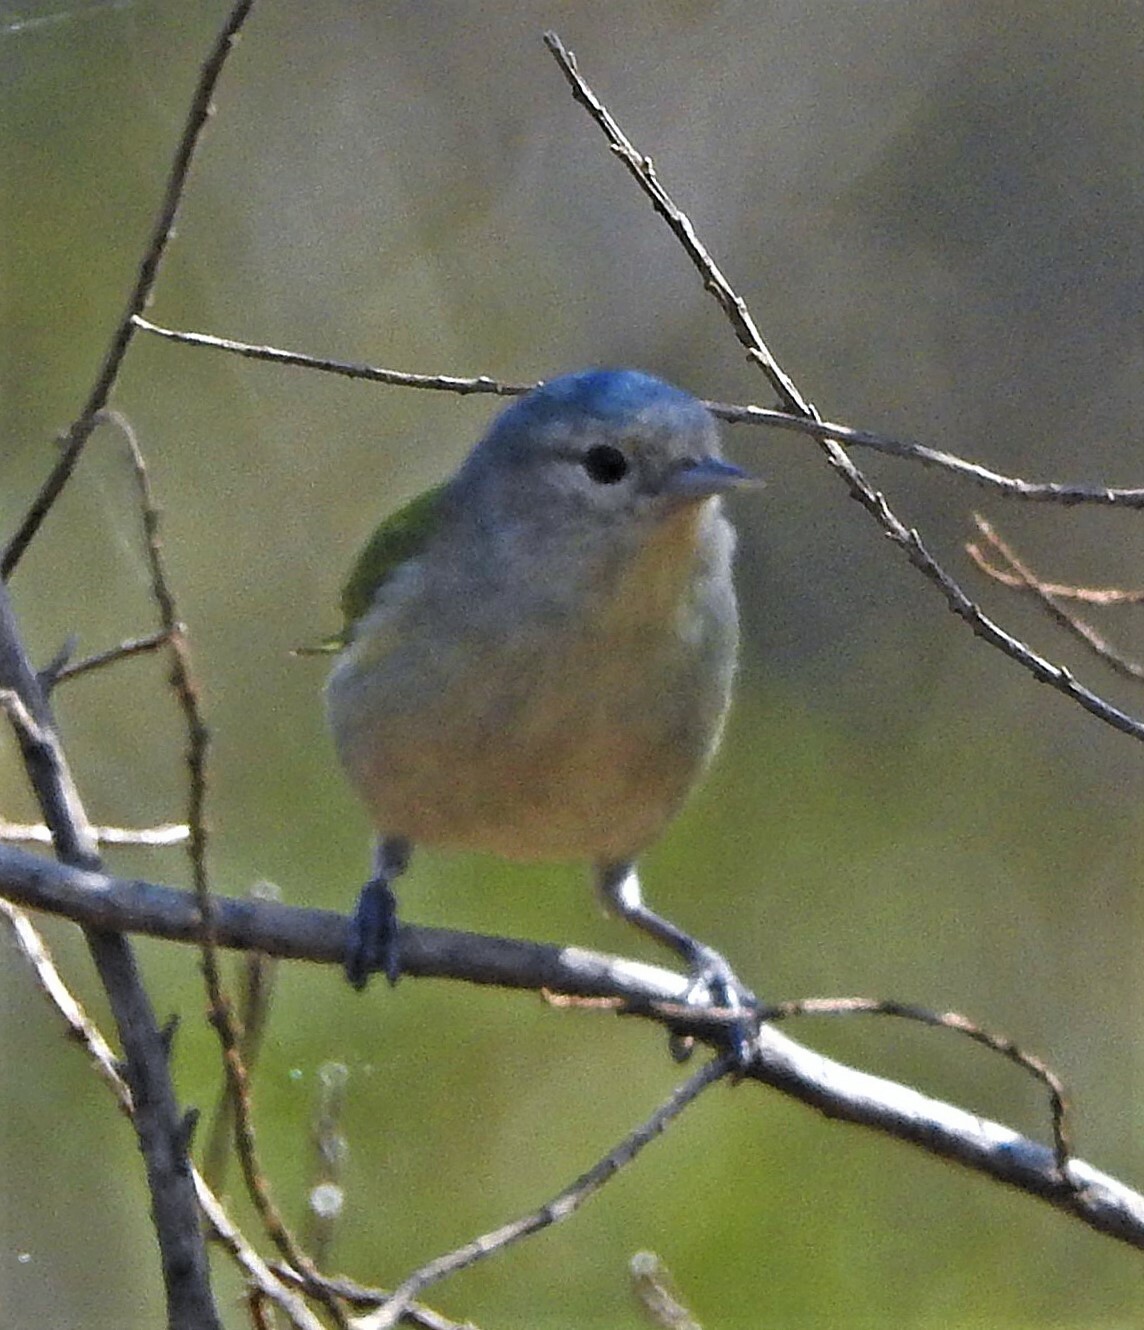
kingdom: Animalia
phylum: Chordata
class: Aves
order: Passeriformes
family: Thraupidae
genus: Conirostrum
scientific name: Conirostrum speciosum
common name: Chestnut-vented conebill
